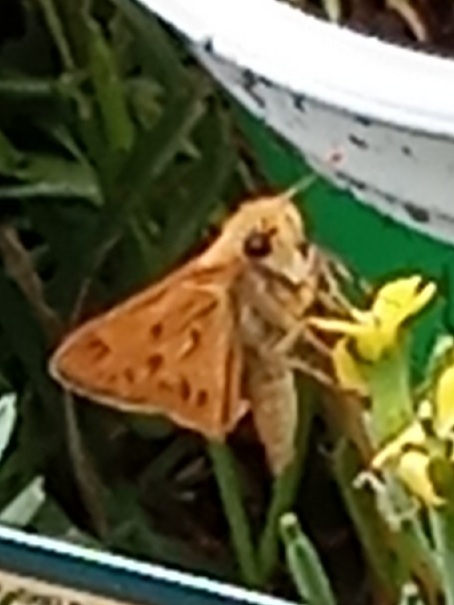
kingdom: Animalia
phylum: Arthropoda
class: Insecta
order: Lepidoptera
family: Hesperiidae
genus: Hylephila
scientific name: Hylephila phyleus
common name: Fiery skipper
